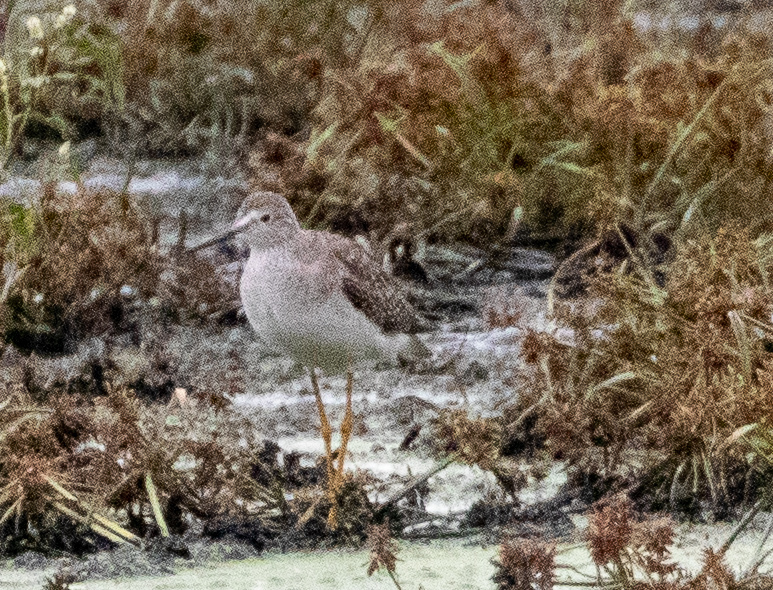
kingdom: Animalia
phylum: Chordata
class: Aves
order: Charadriiformes
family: Scolopacidae
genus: Tringa
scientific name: Tringa melanoleuca
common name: Greater yellowlegs
